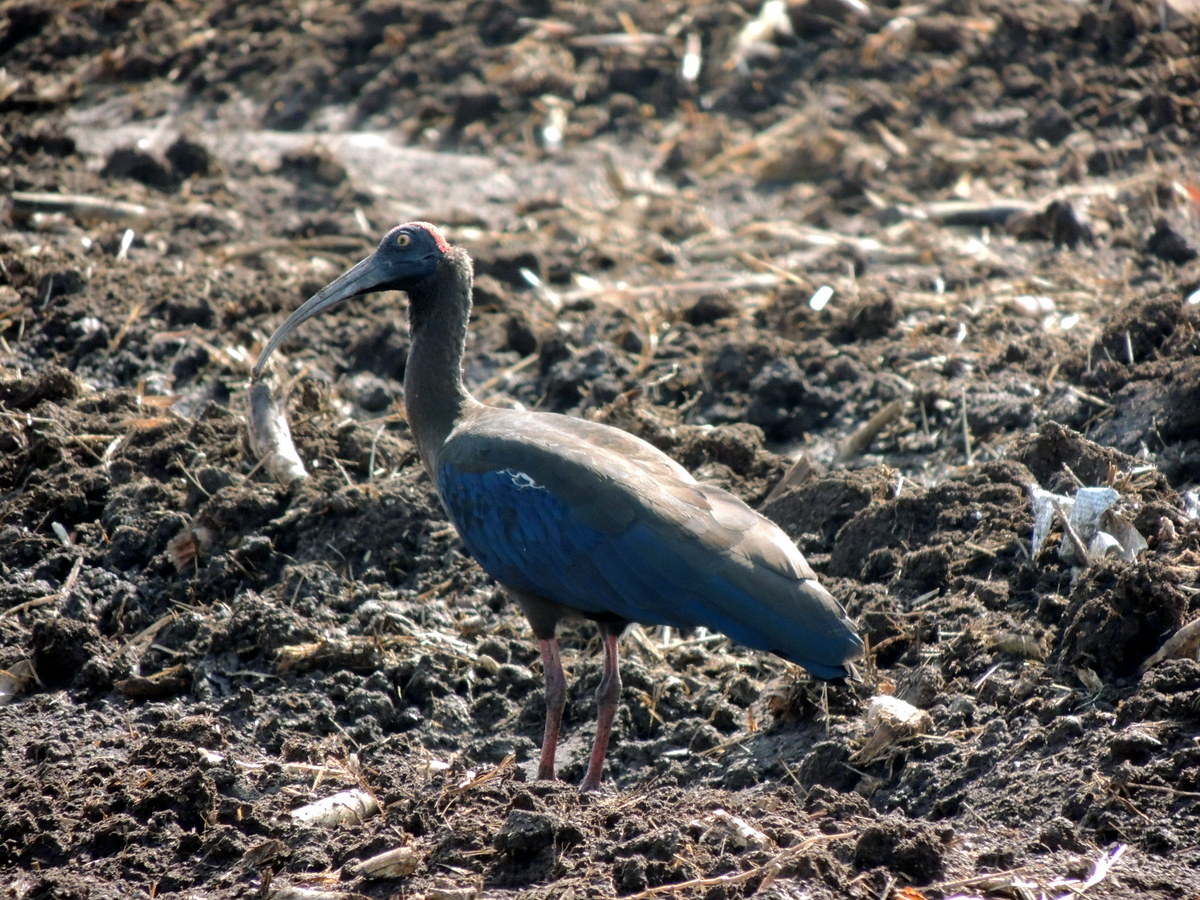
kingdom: Animalia
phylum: Chordata
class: Aves
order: Pelecaniformes
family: Threskiornithidae
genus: Pseudibis
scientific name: Pseudibis papillosa
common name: Red-naped ibis
